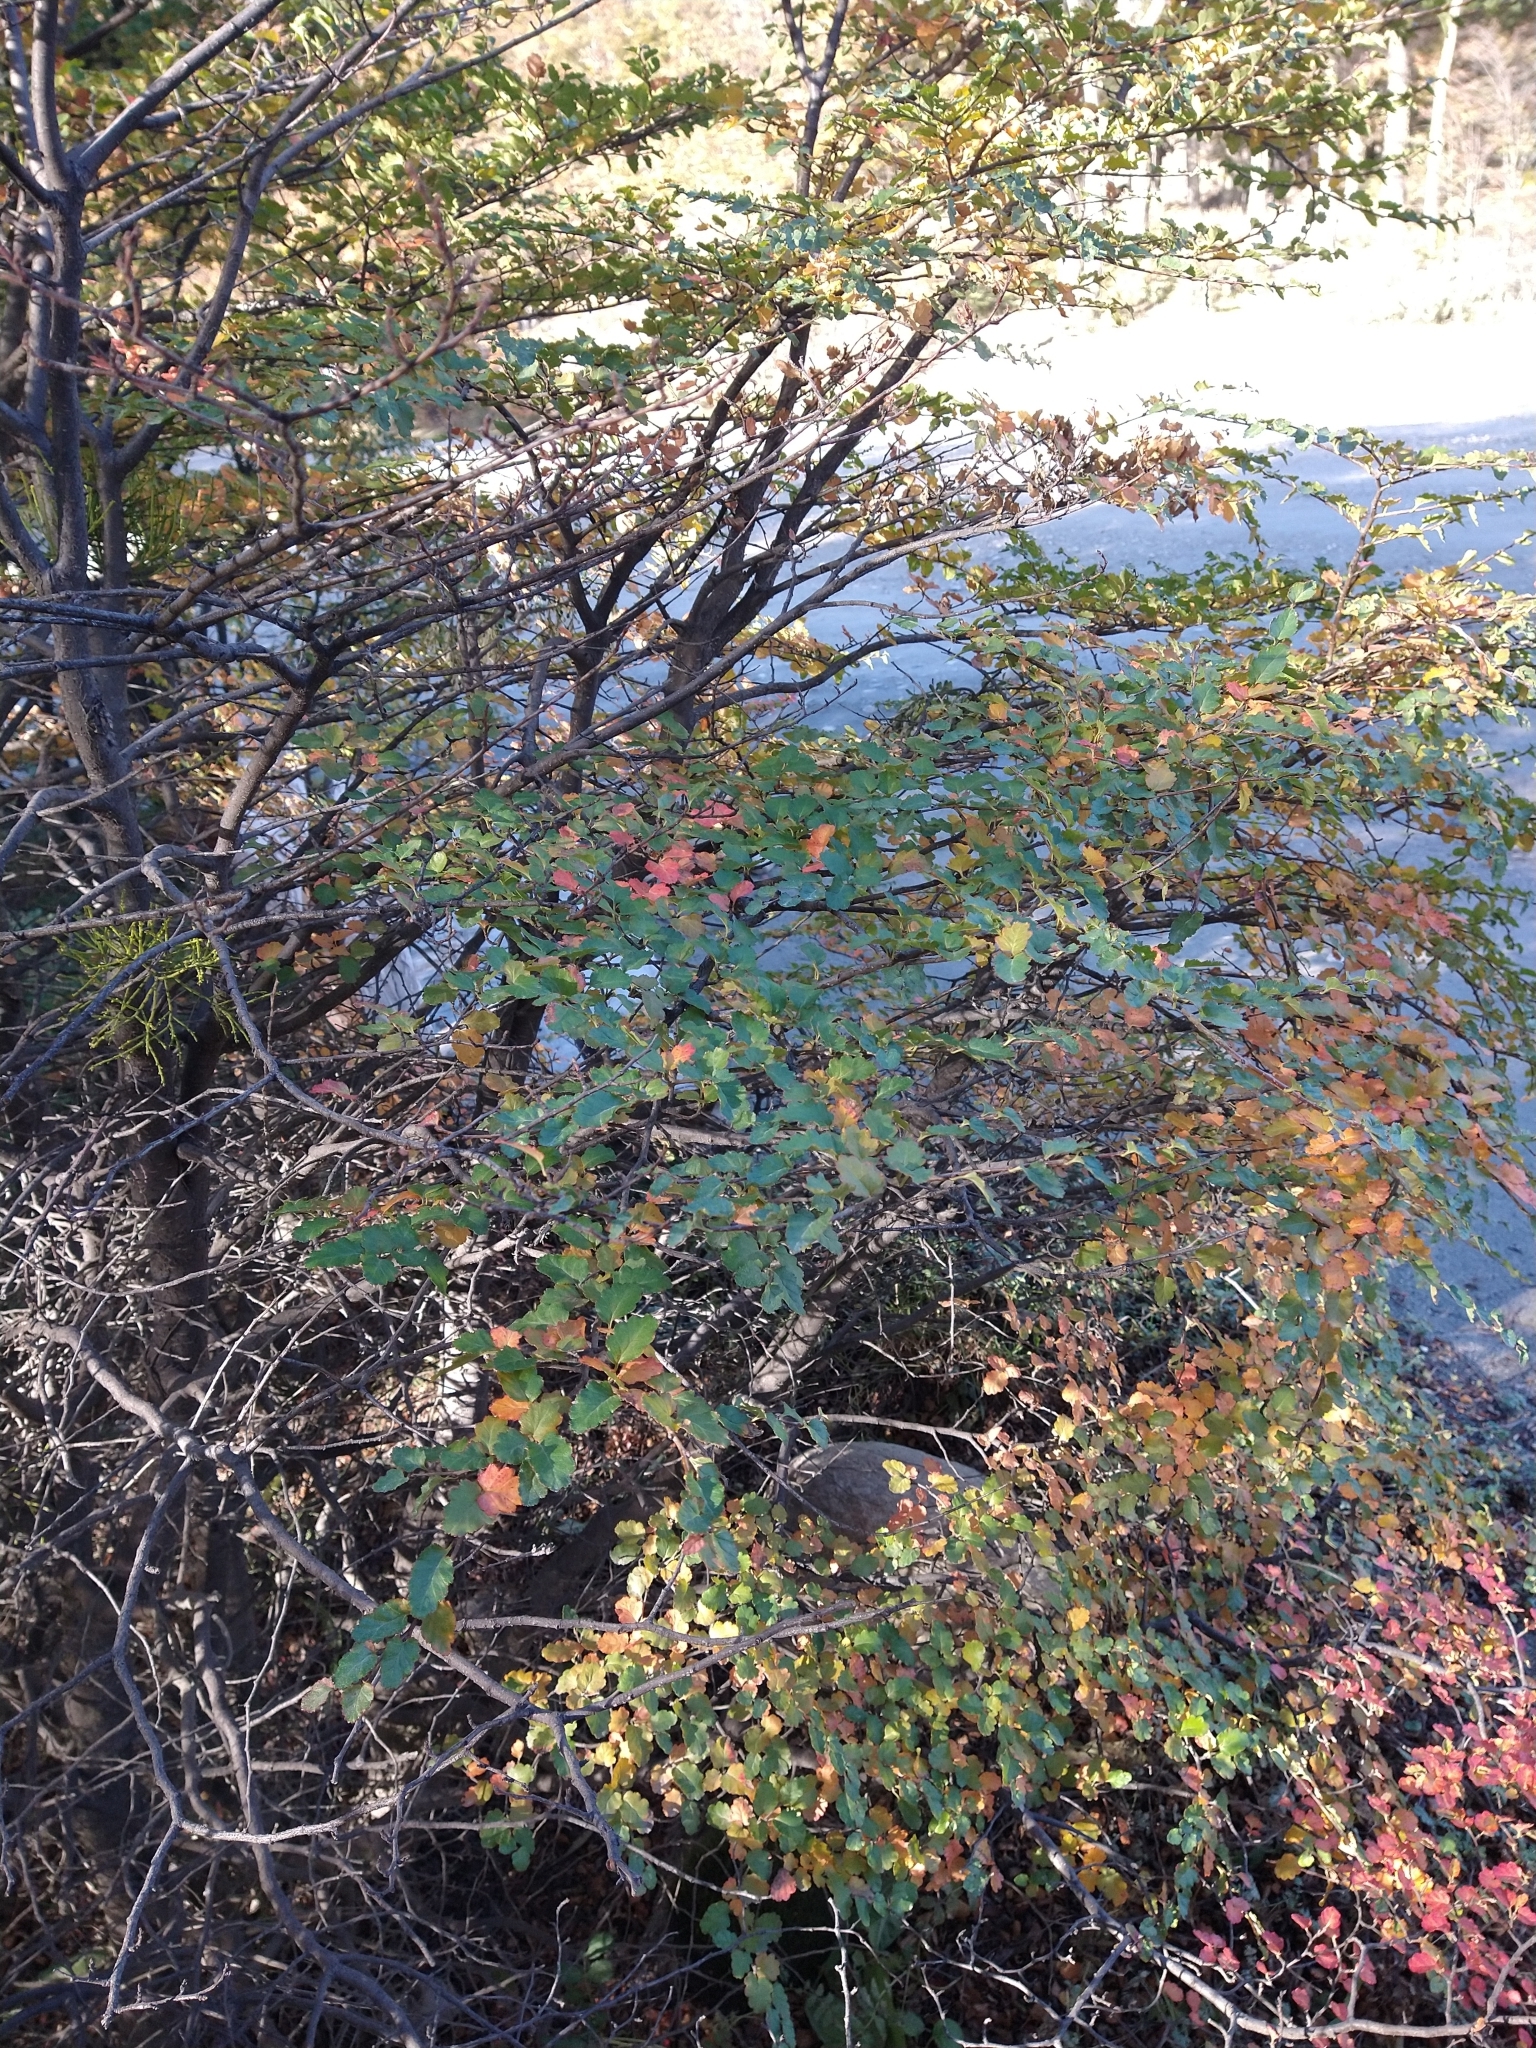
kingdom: Plantae
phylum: Tracheophyta
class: Magnoliopsida
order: Fagales
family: Nothofagaceae
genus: Nothofagus
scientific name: Nothofagus antarctica
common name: Antarctic beech
